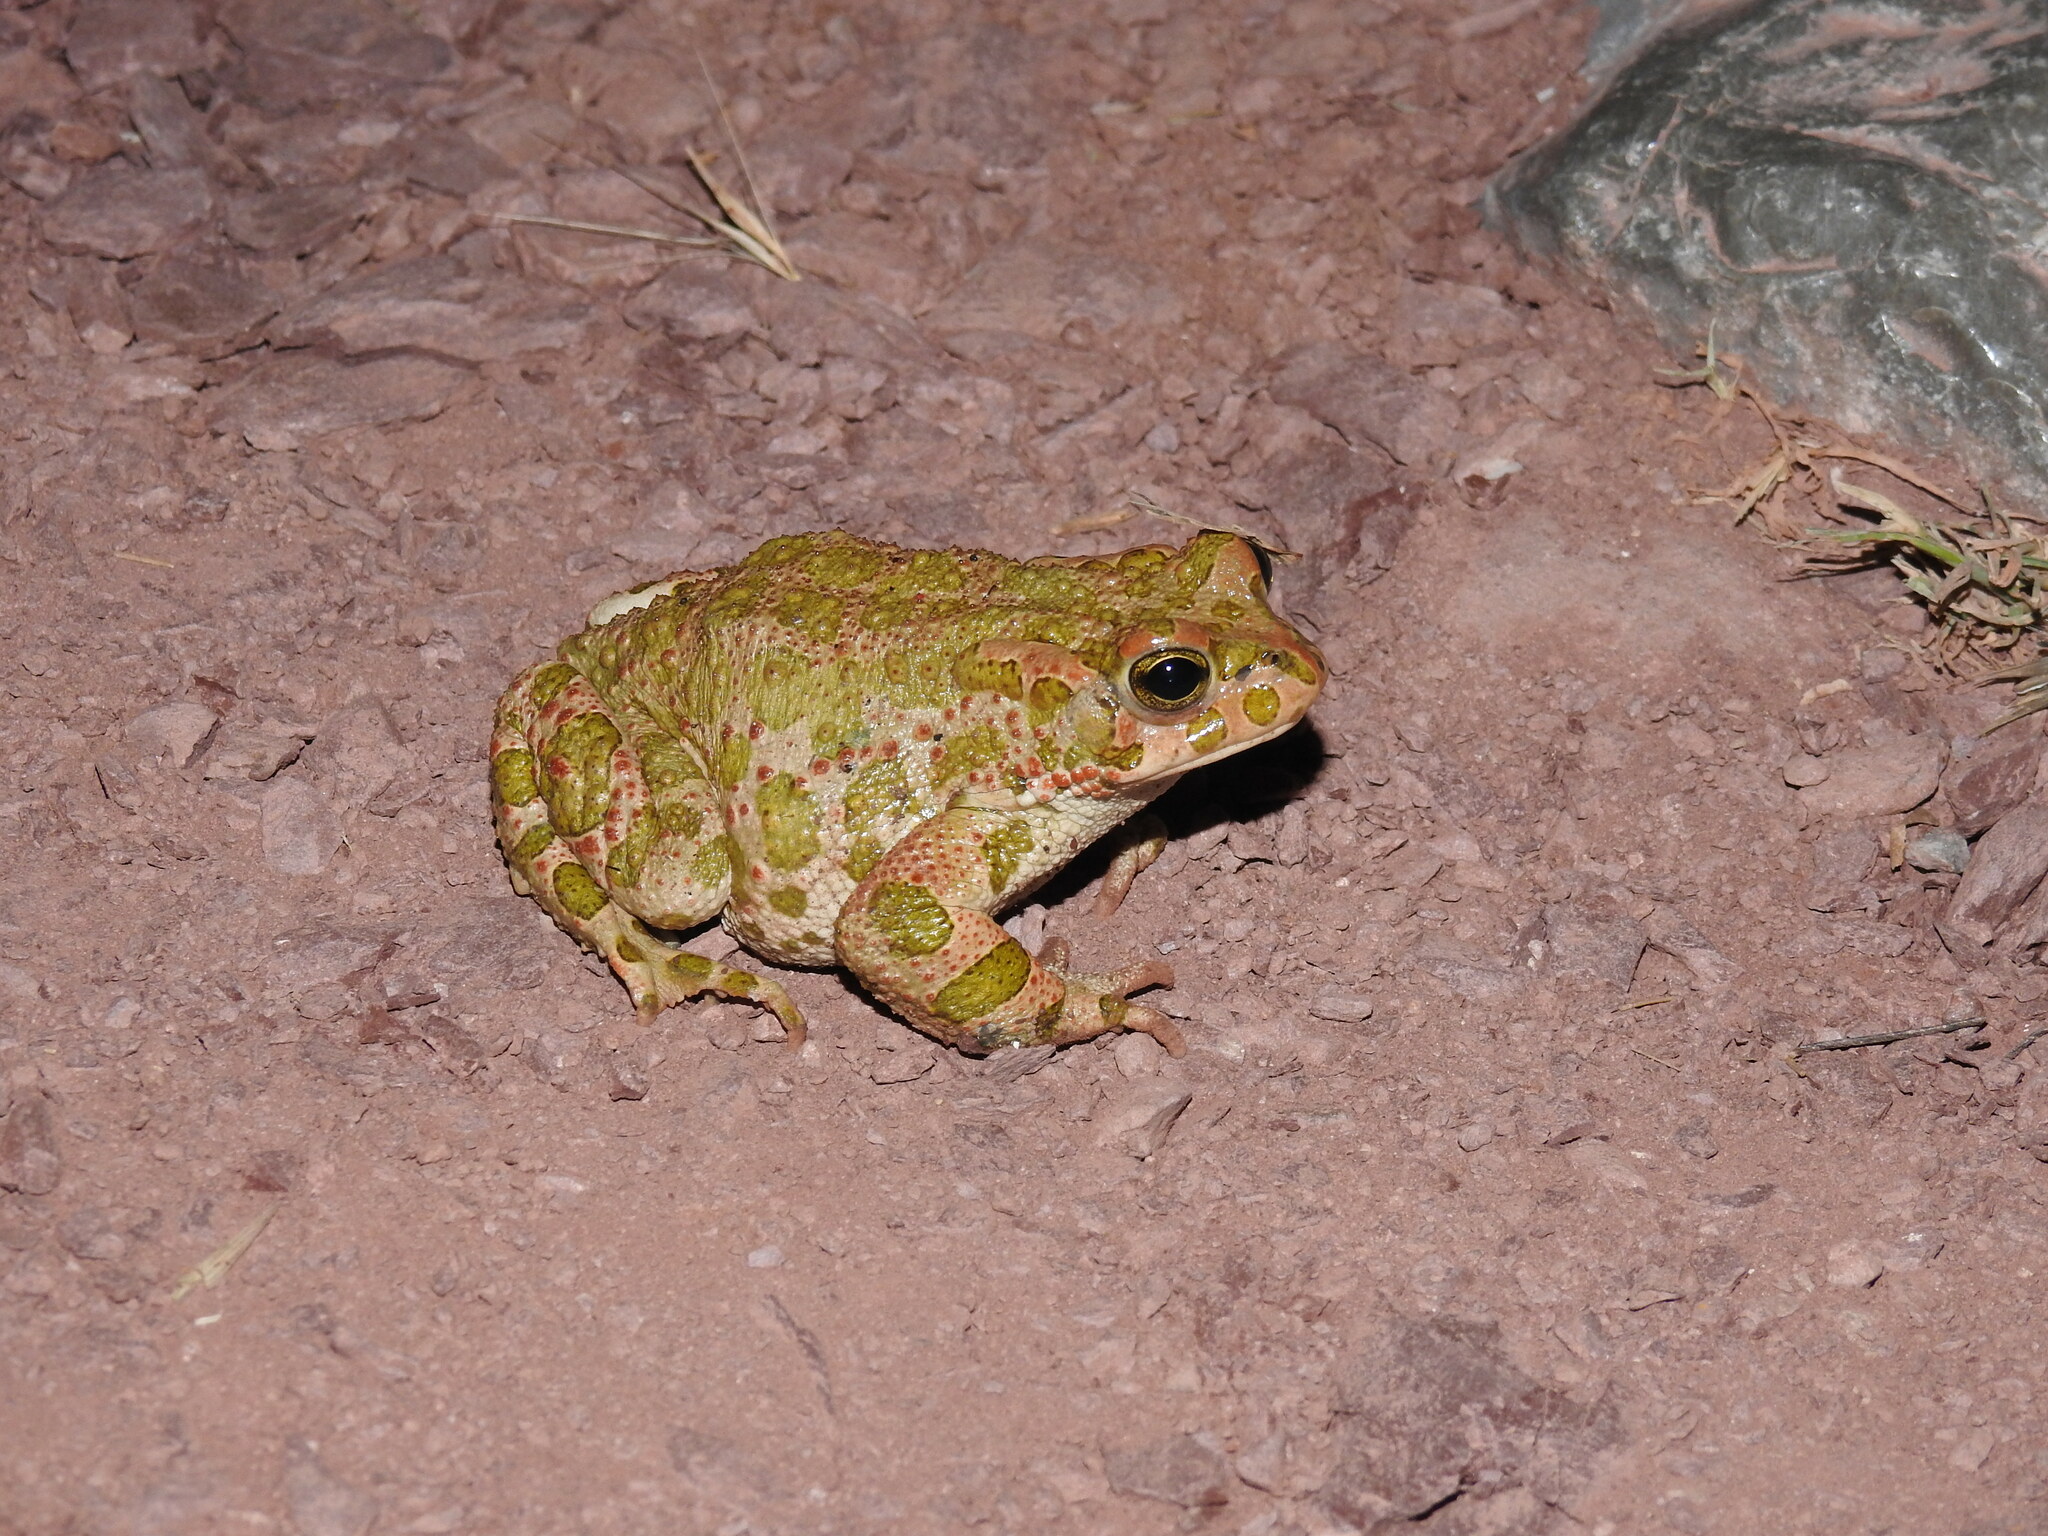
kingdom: Animalia
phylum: Chordata
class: Amphibia
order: Anura
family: Bufonidae
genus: Bufotes
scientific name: Bufotes viridis
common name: European green toad
